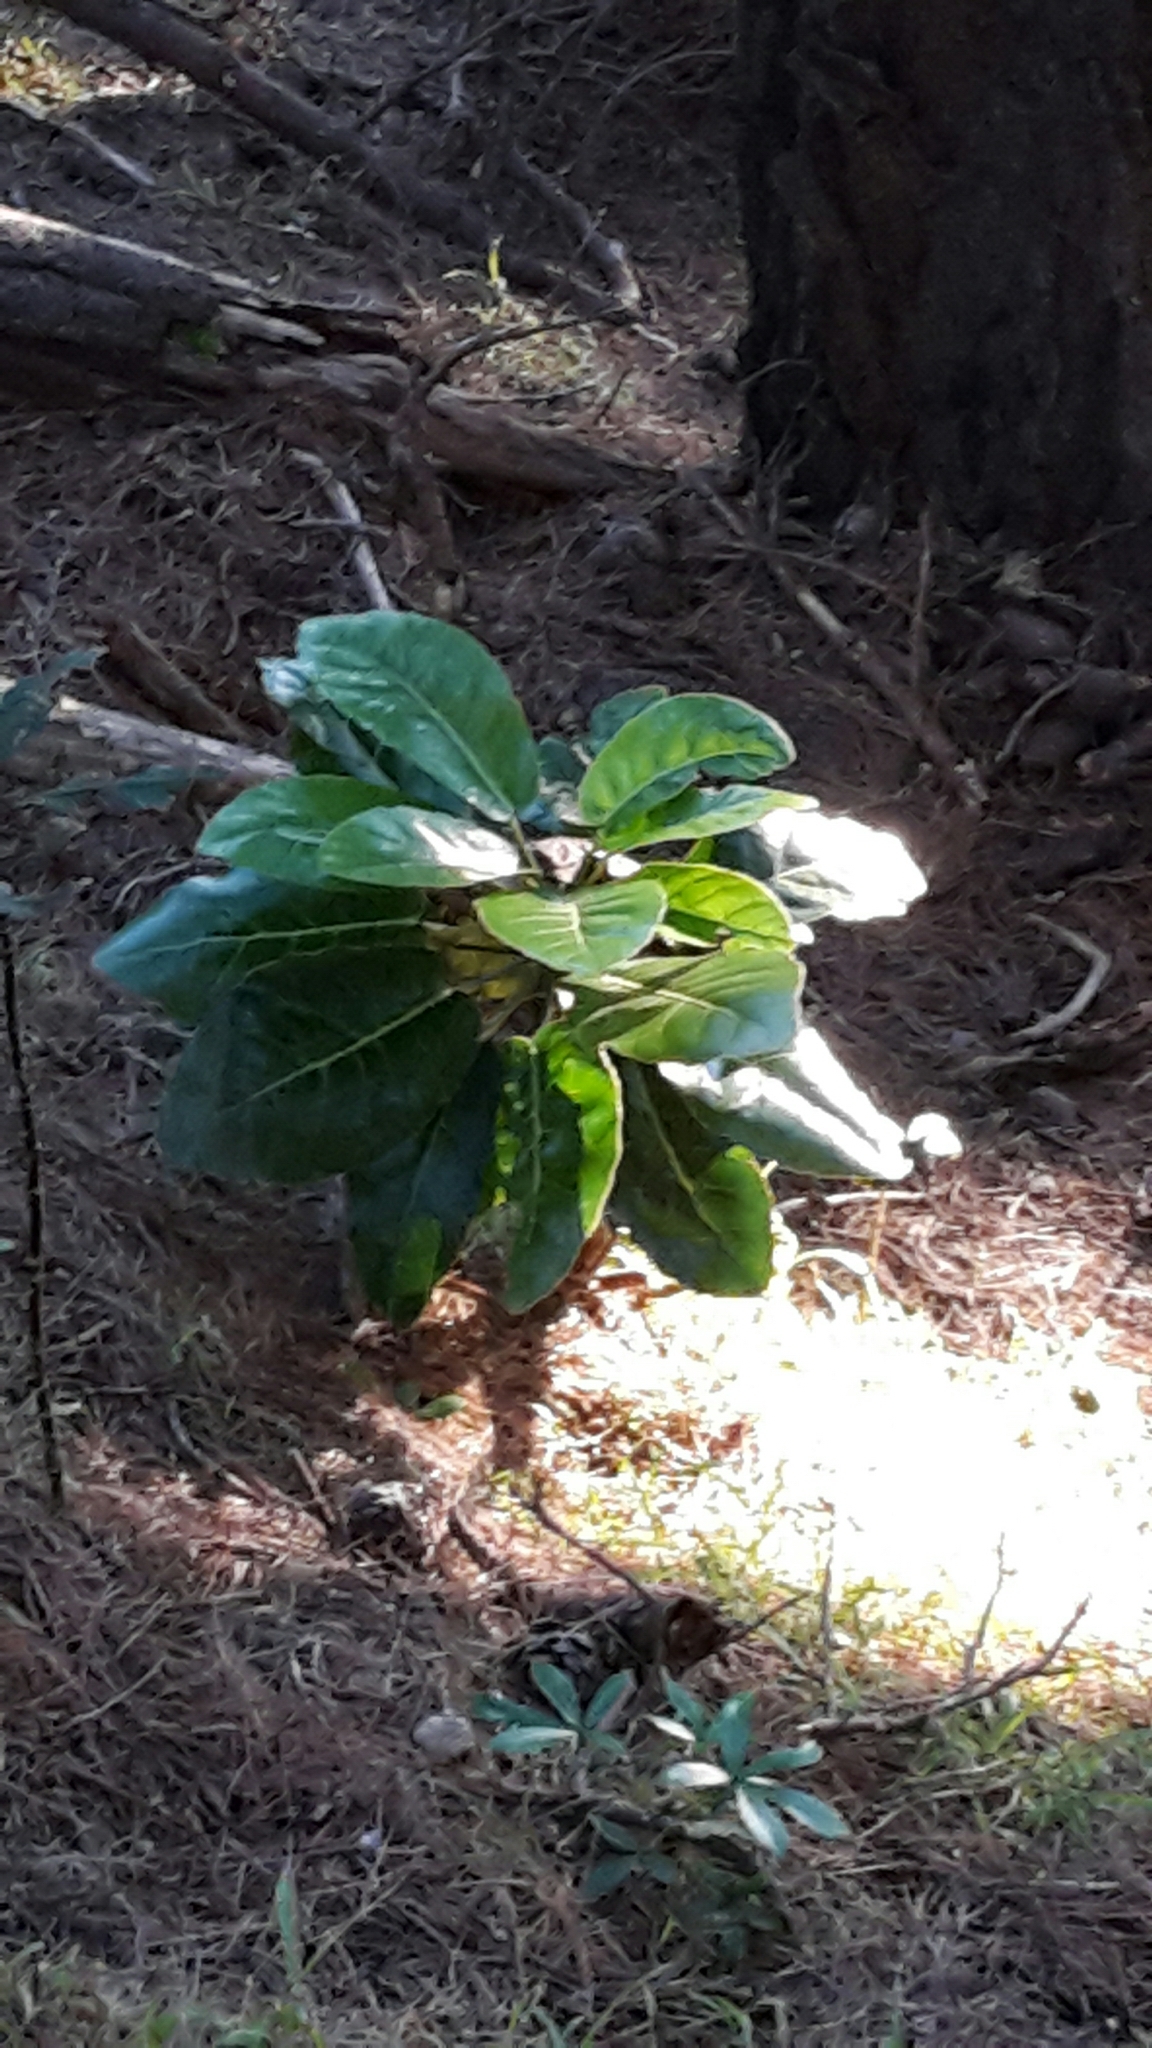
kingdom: Plantae
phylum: Tracheophyta
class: Magnoliopsida
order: Apiales
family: Araliaceae
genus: Meryta
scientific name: Meryta sinclairii
